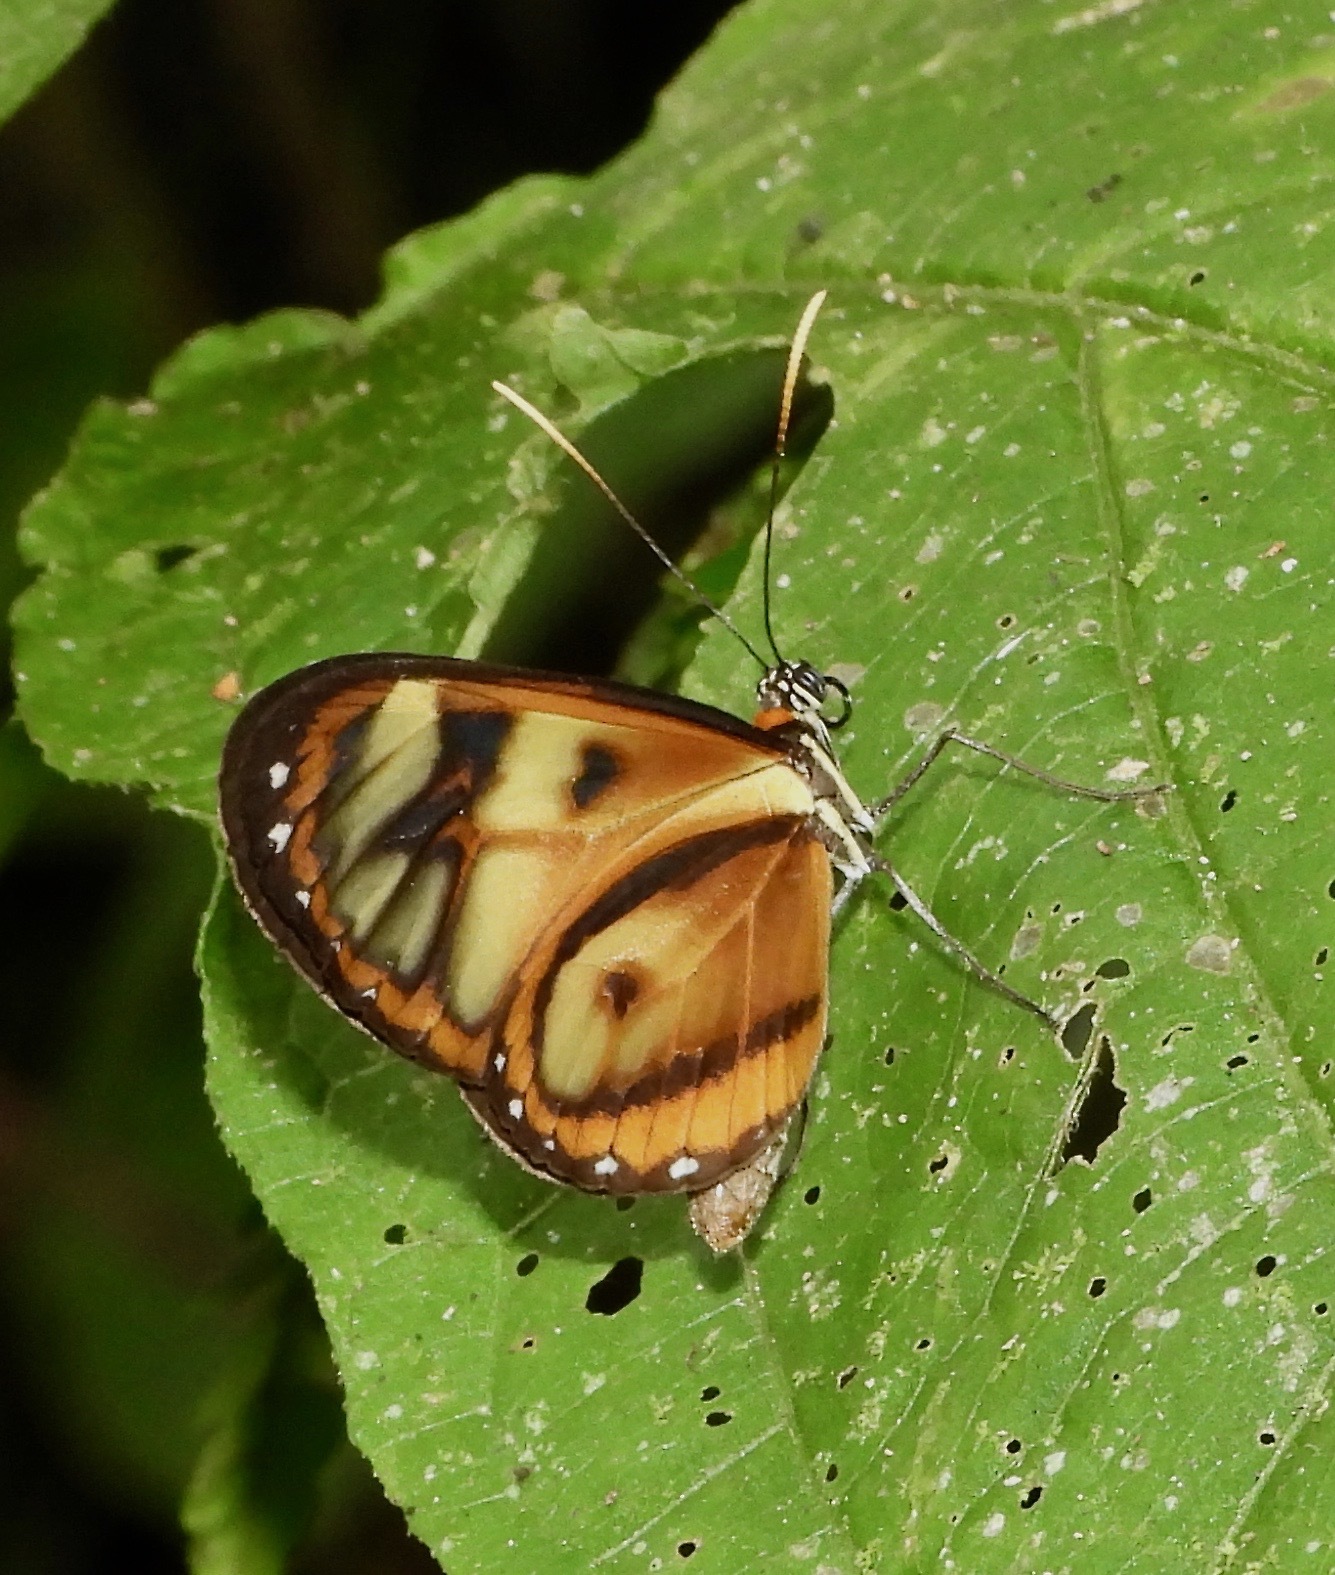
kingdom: Animalia
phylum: Arthropoda
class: Insecta
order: Lepidoptera
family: Nymphalidae
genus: Ithomia
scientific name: Ithomia iphianassa
